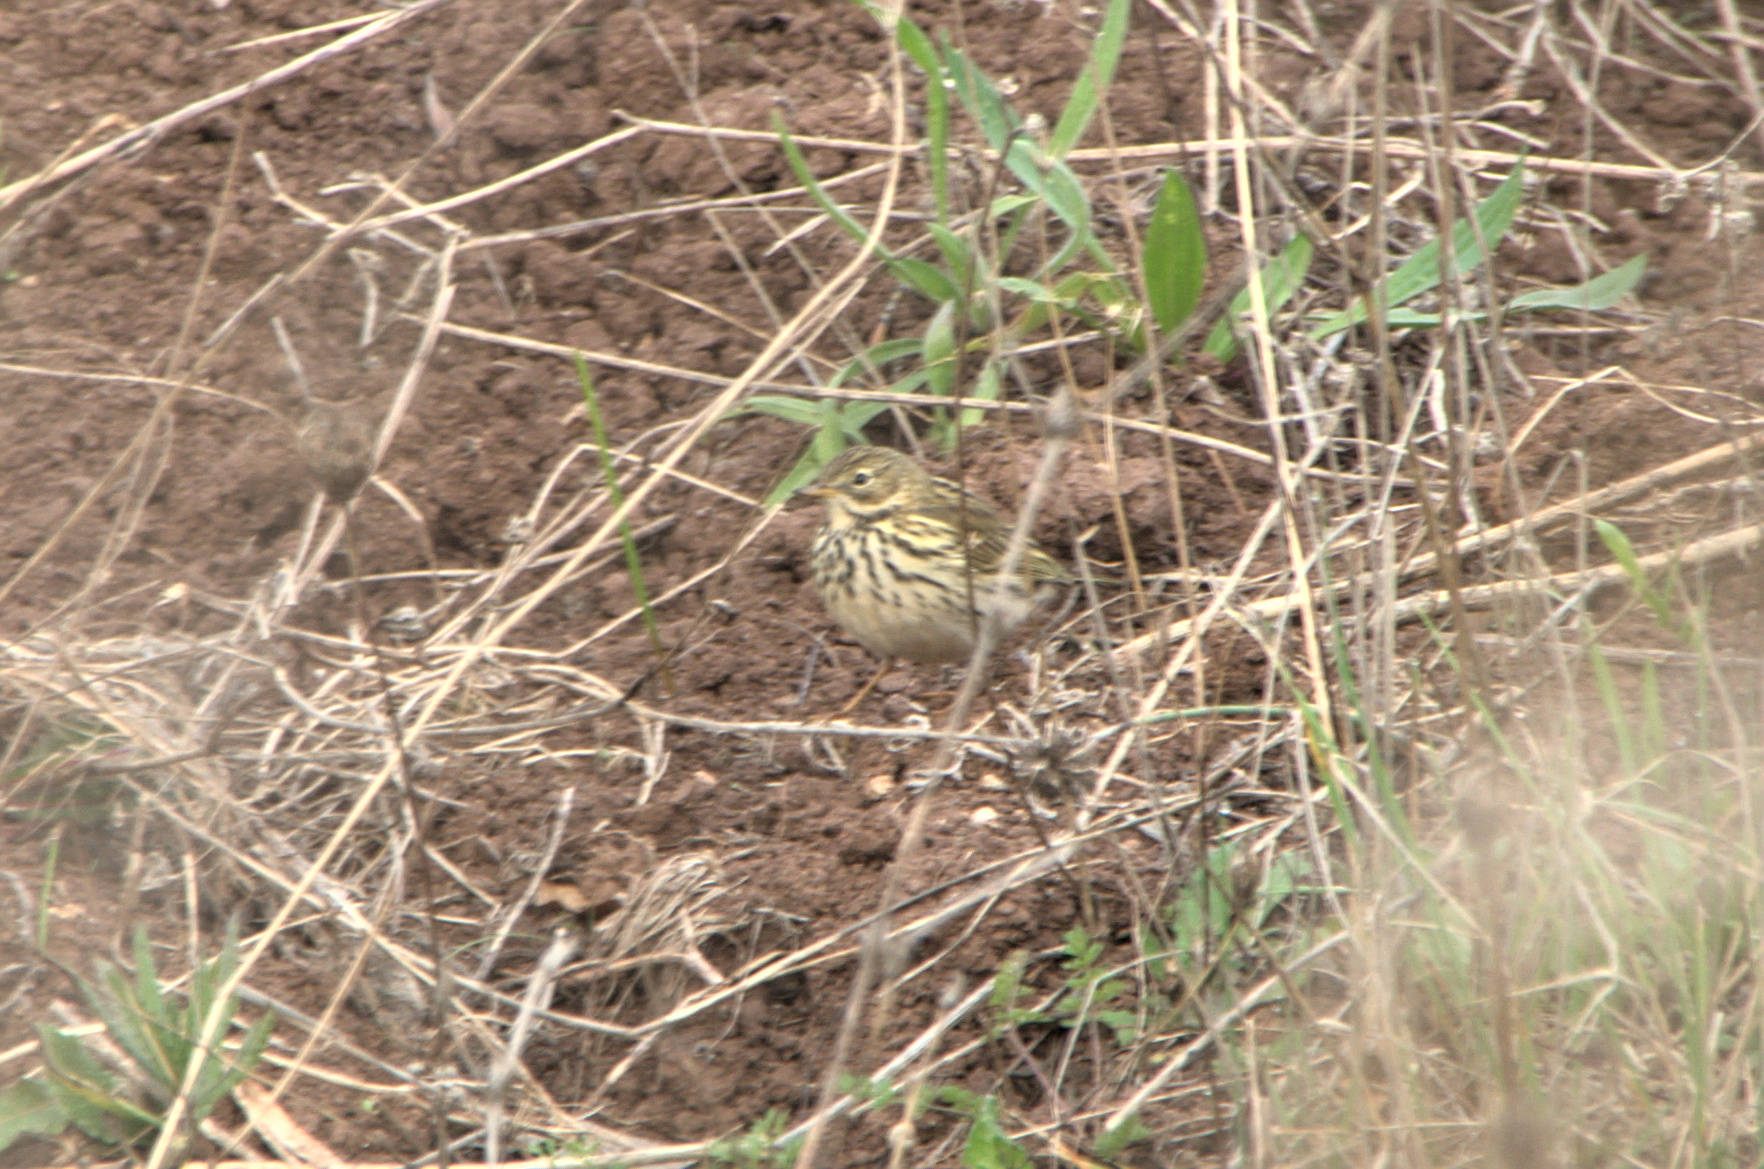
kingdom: Animalia
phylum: Chordata
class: Aves
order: Passeriformes
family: Motacillidae
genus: Anthus
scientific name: Anthus pratensis
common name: Meadow pipit
